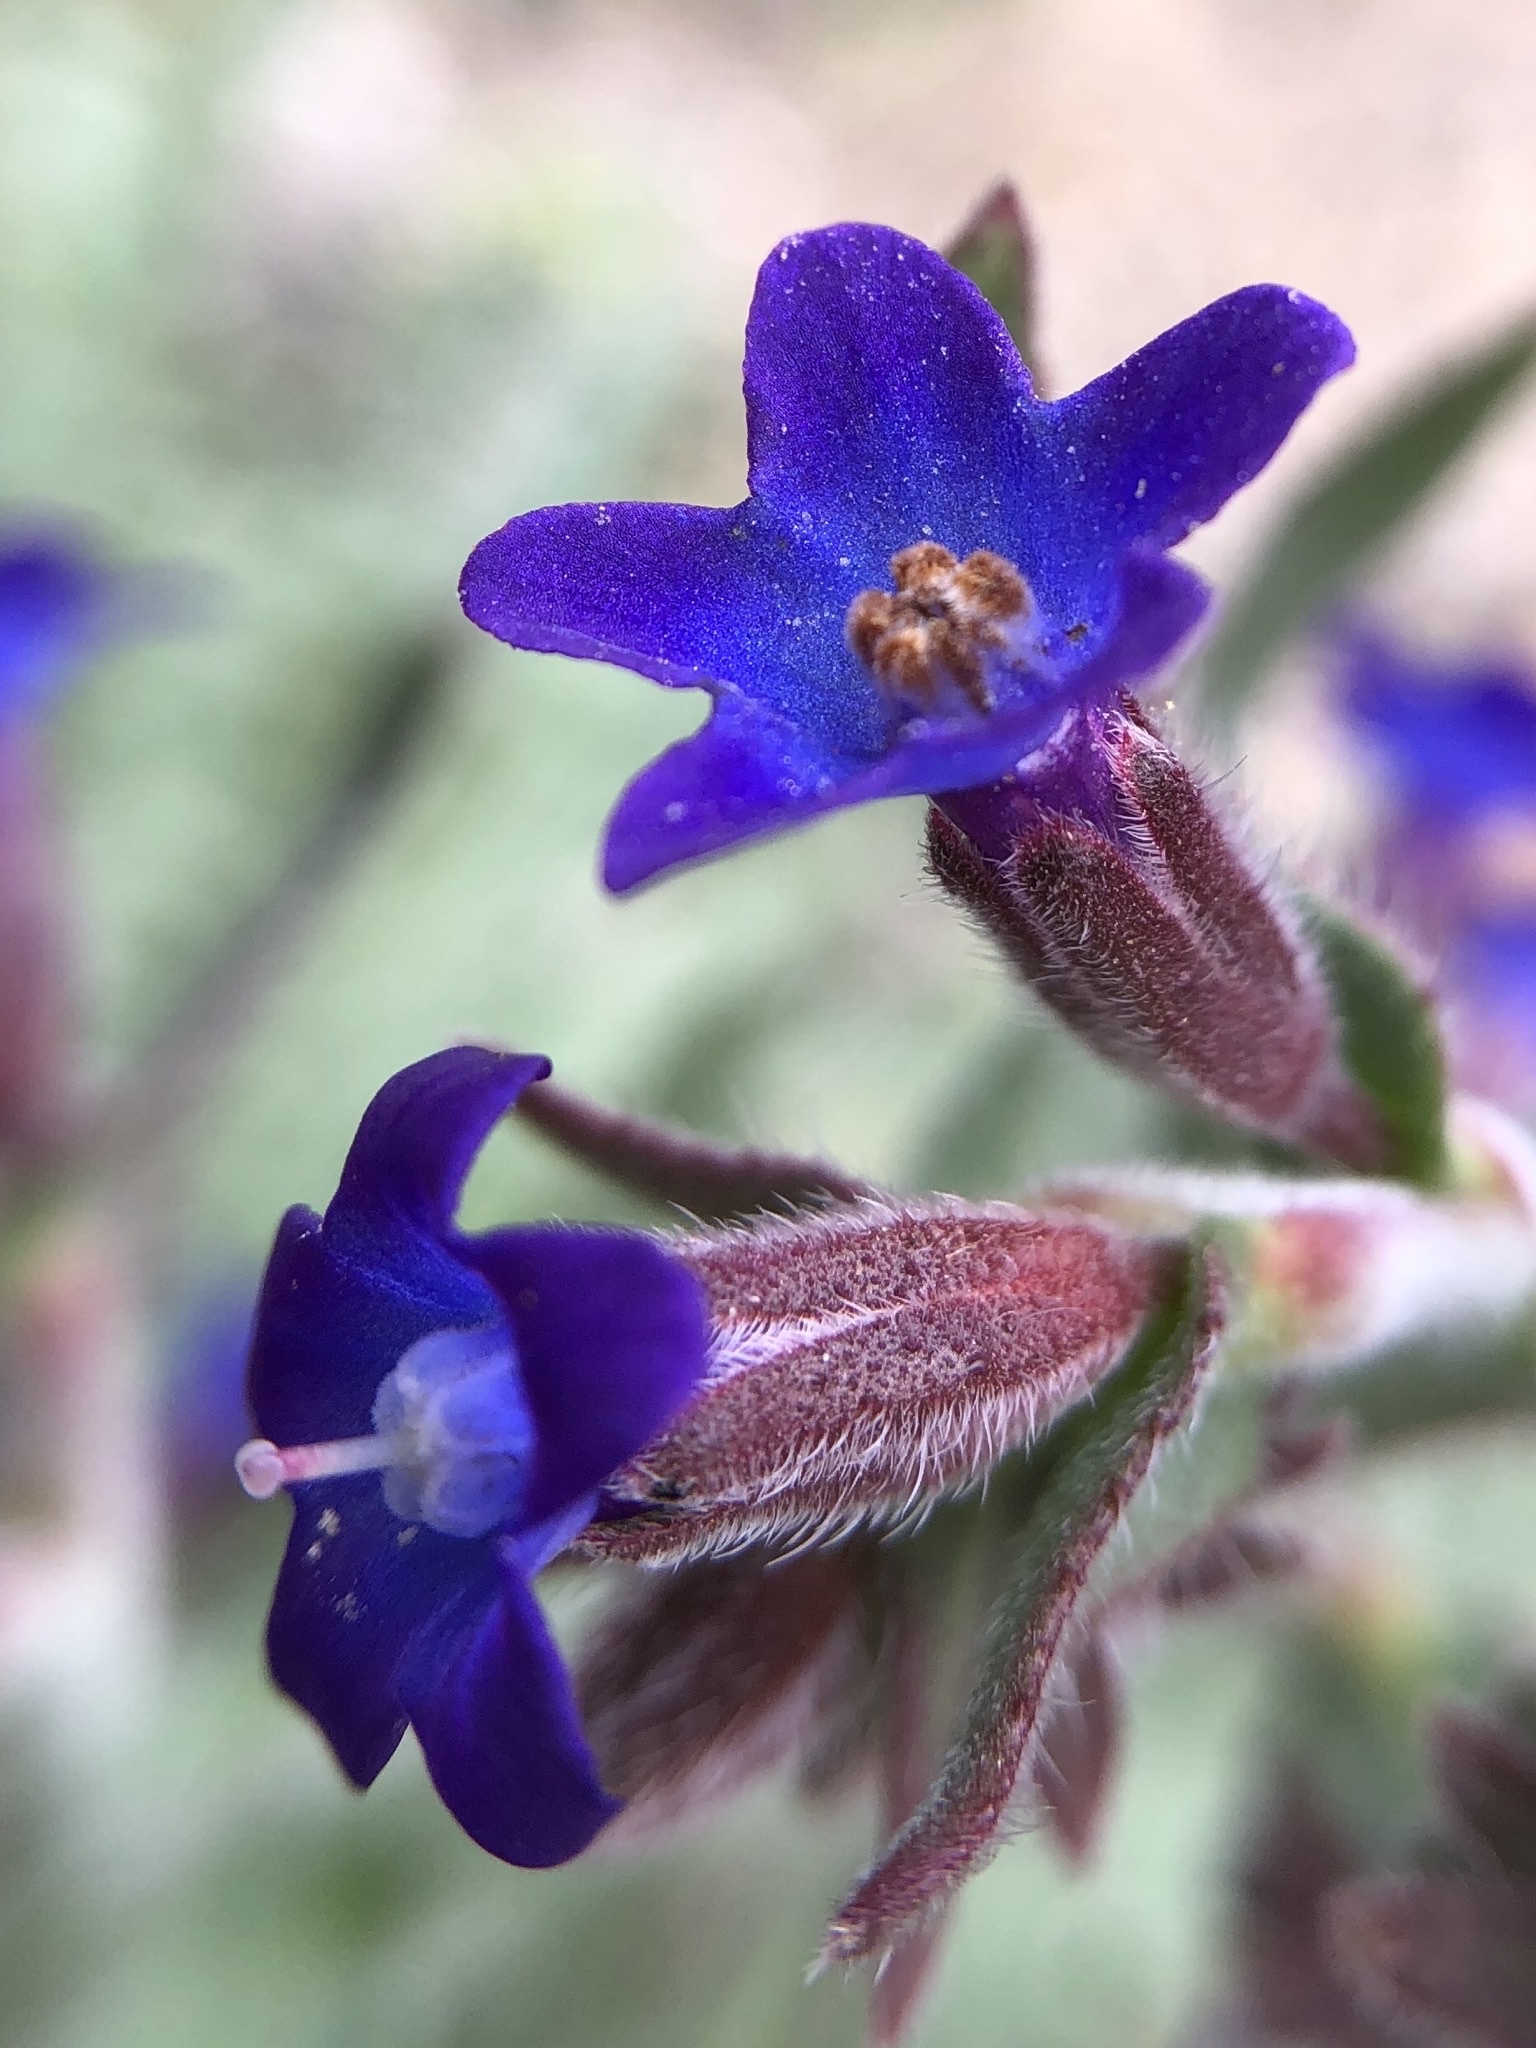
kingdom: Plantae
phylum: Tracheophyta
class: Magnoliopsida
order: Boraginales
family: Boraginaceae
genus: Anchusa
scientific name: Anchusa undulata
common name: Undulate alkanet
